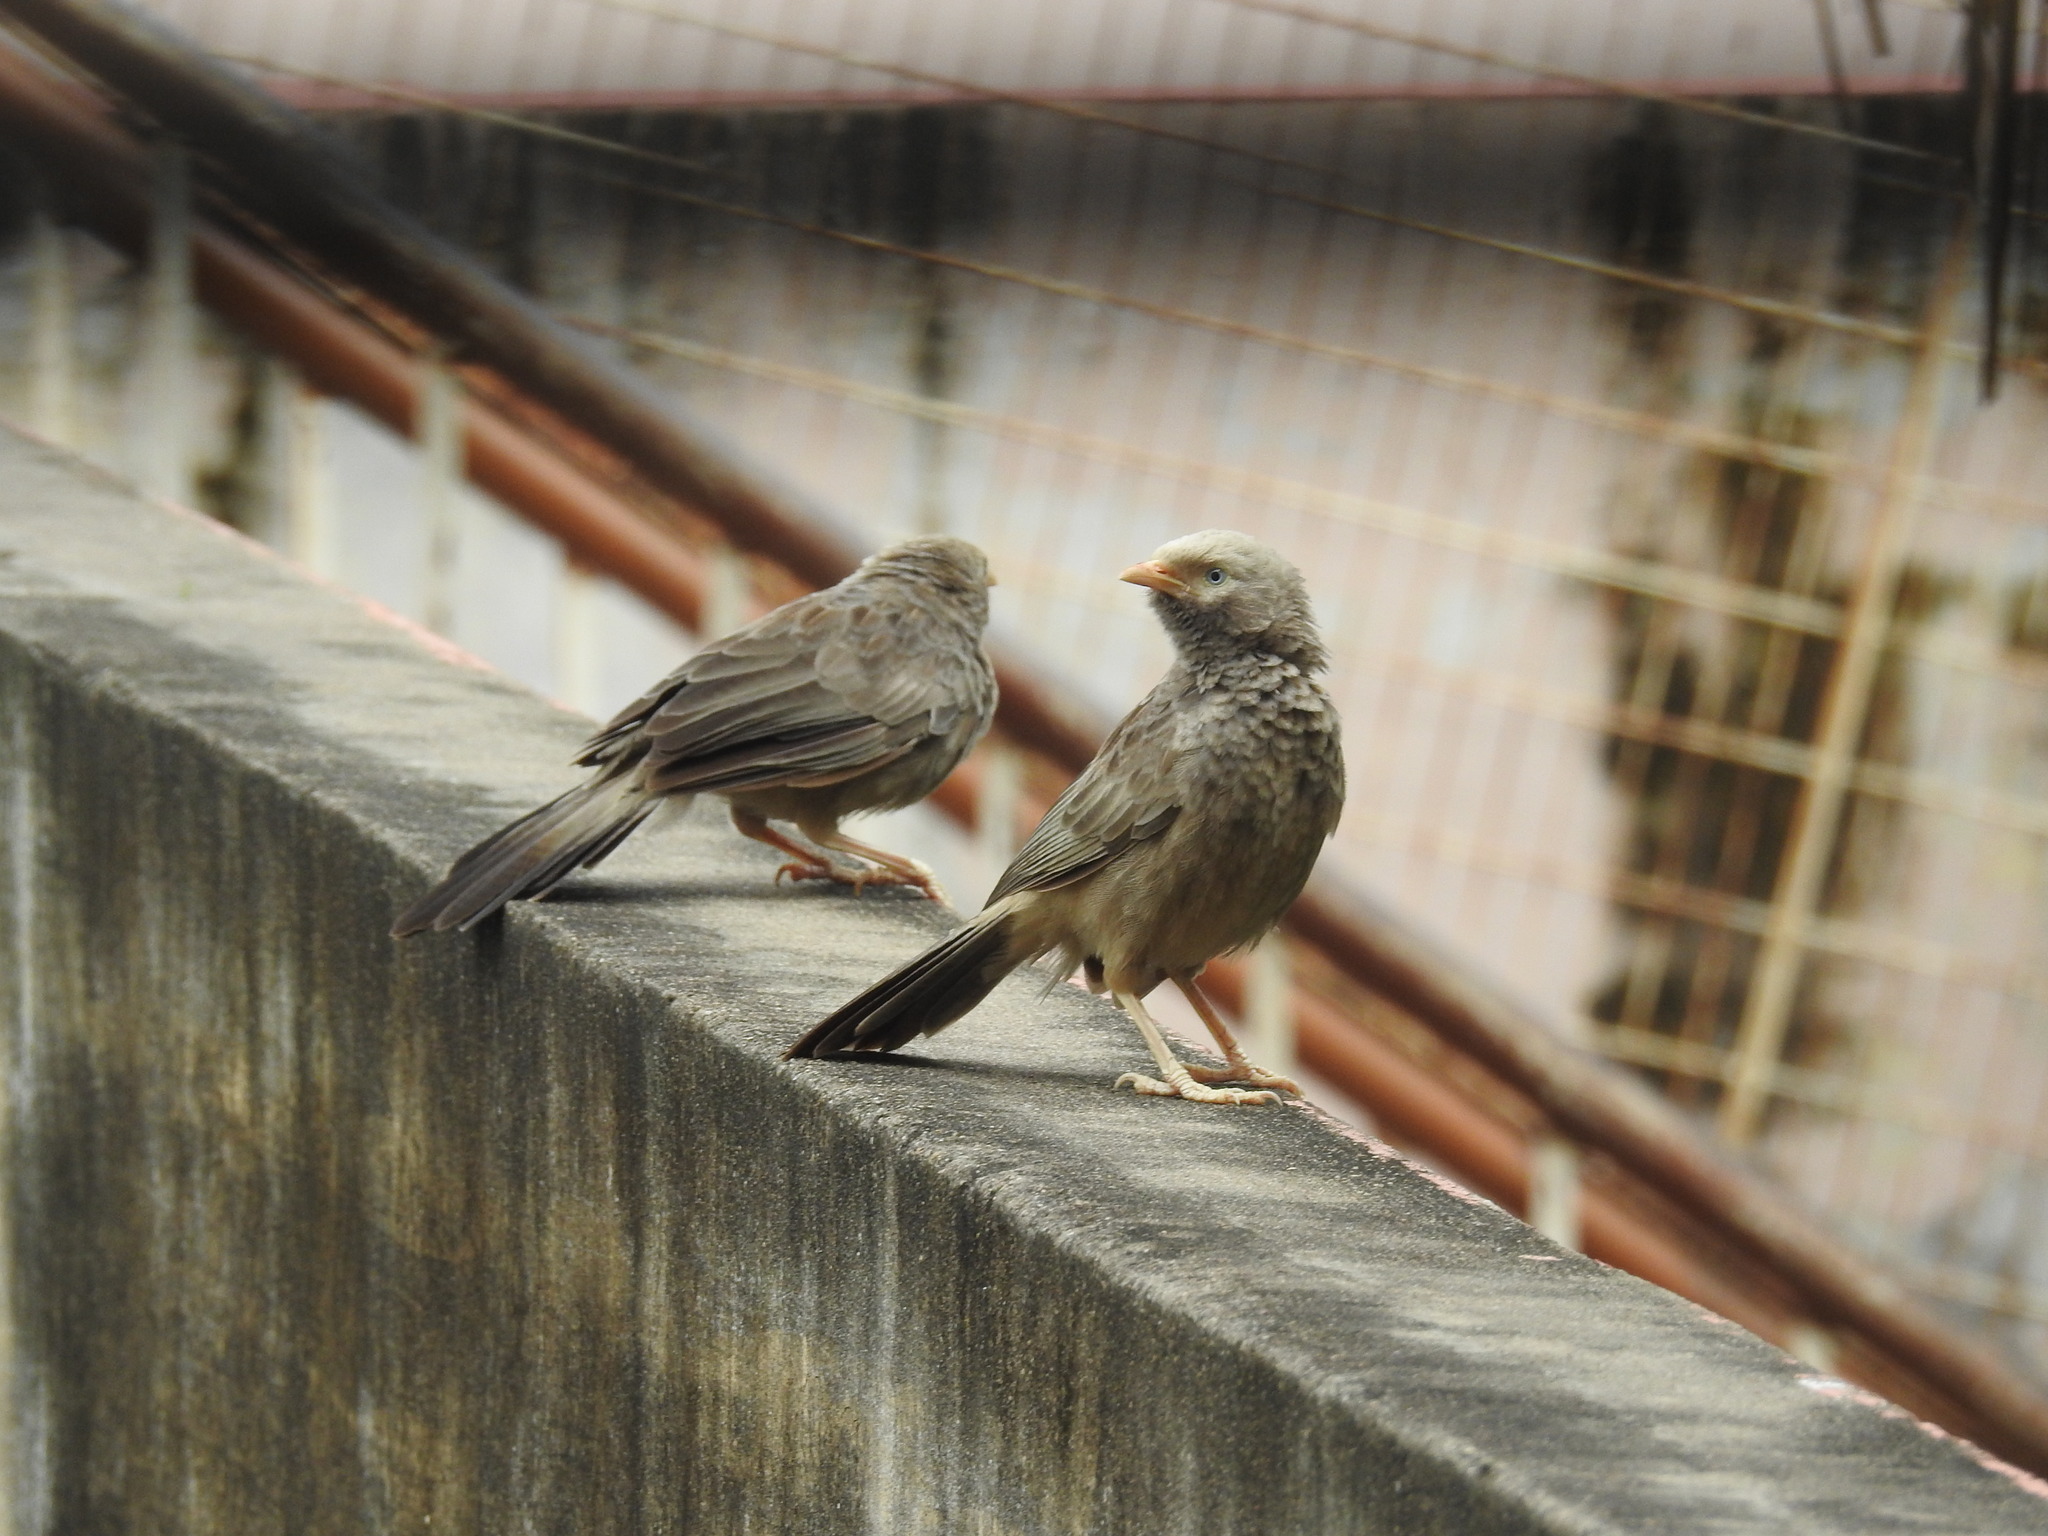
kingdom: Animalia
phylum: Chordata
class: Aves
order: Passeriformes
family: Leiothrichidae
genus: Turdoides
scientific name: Turdoides affinis
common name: Yellow-billed babbler
